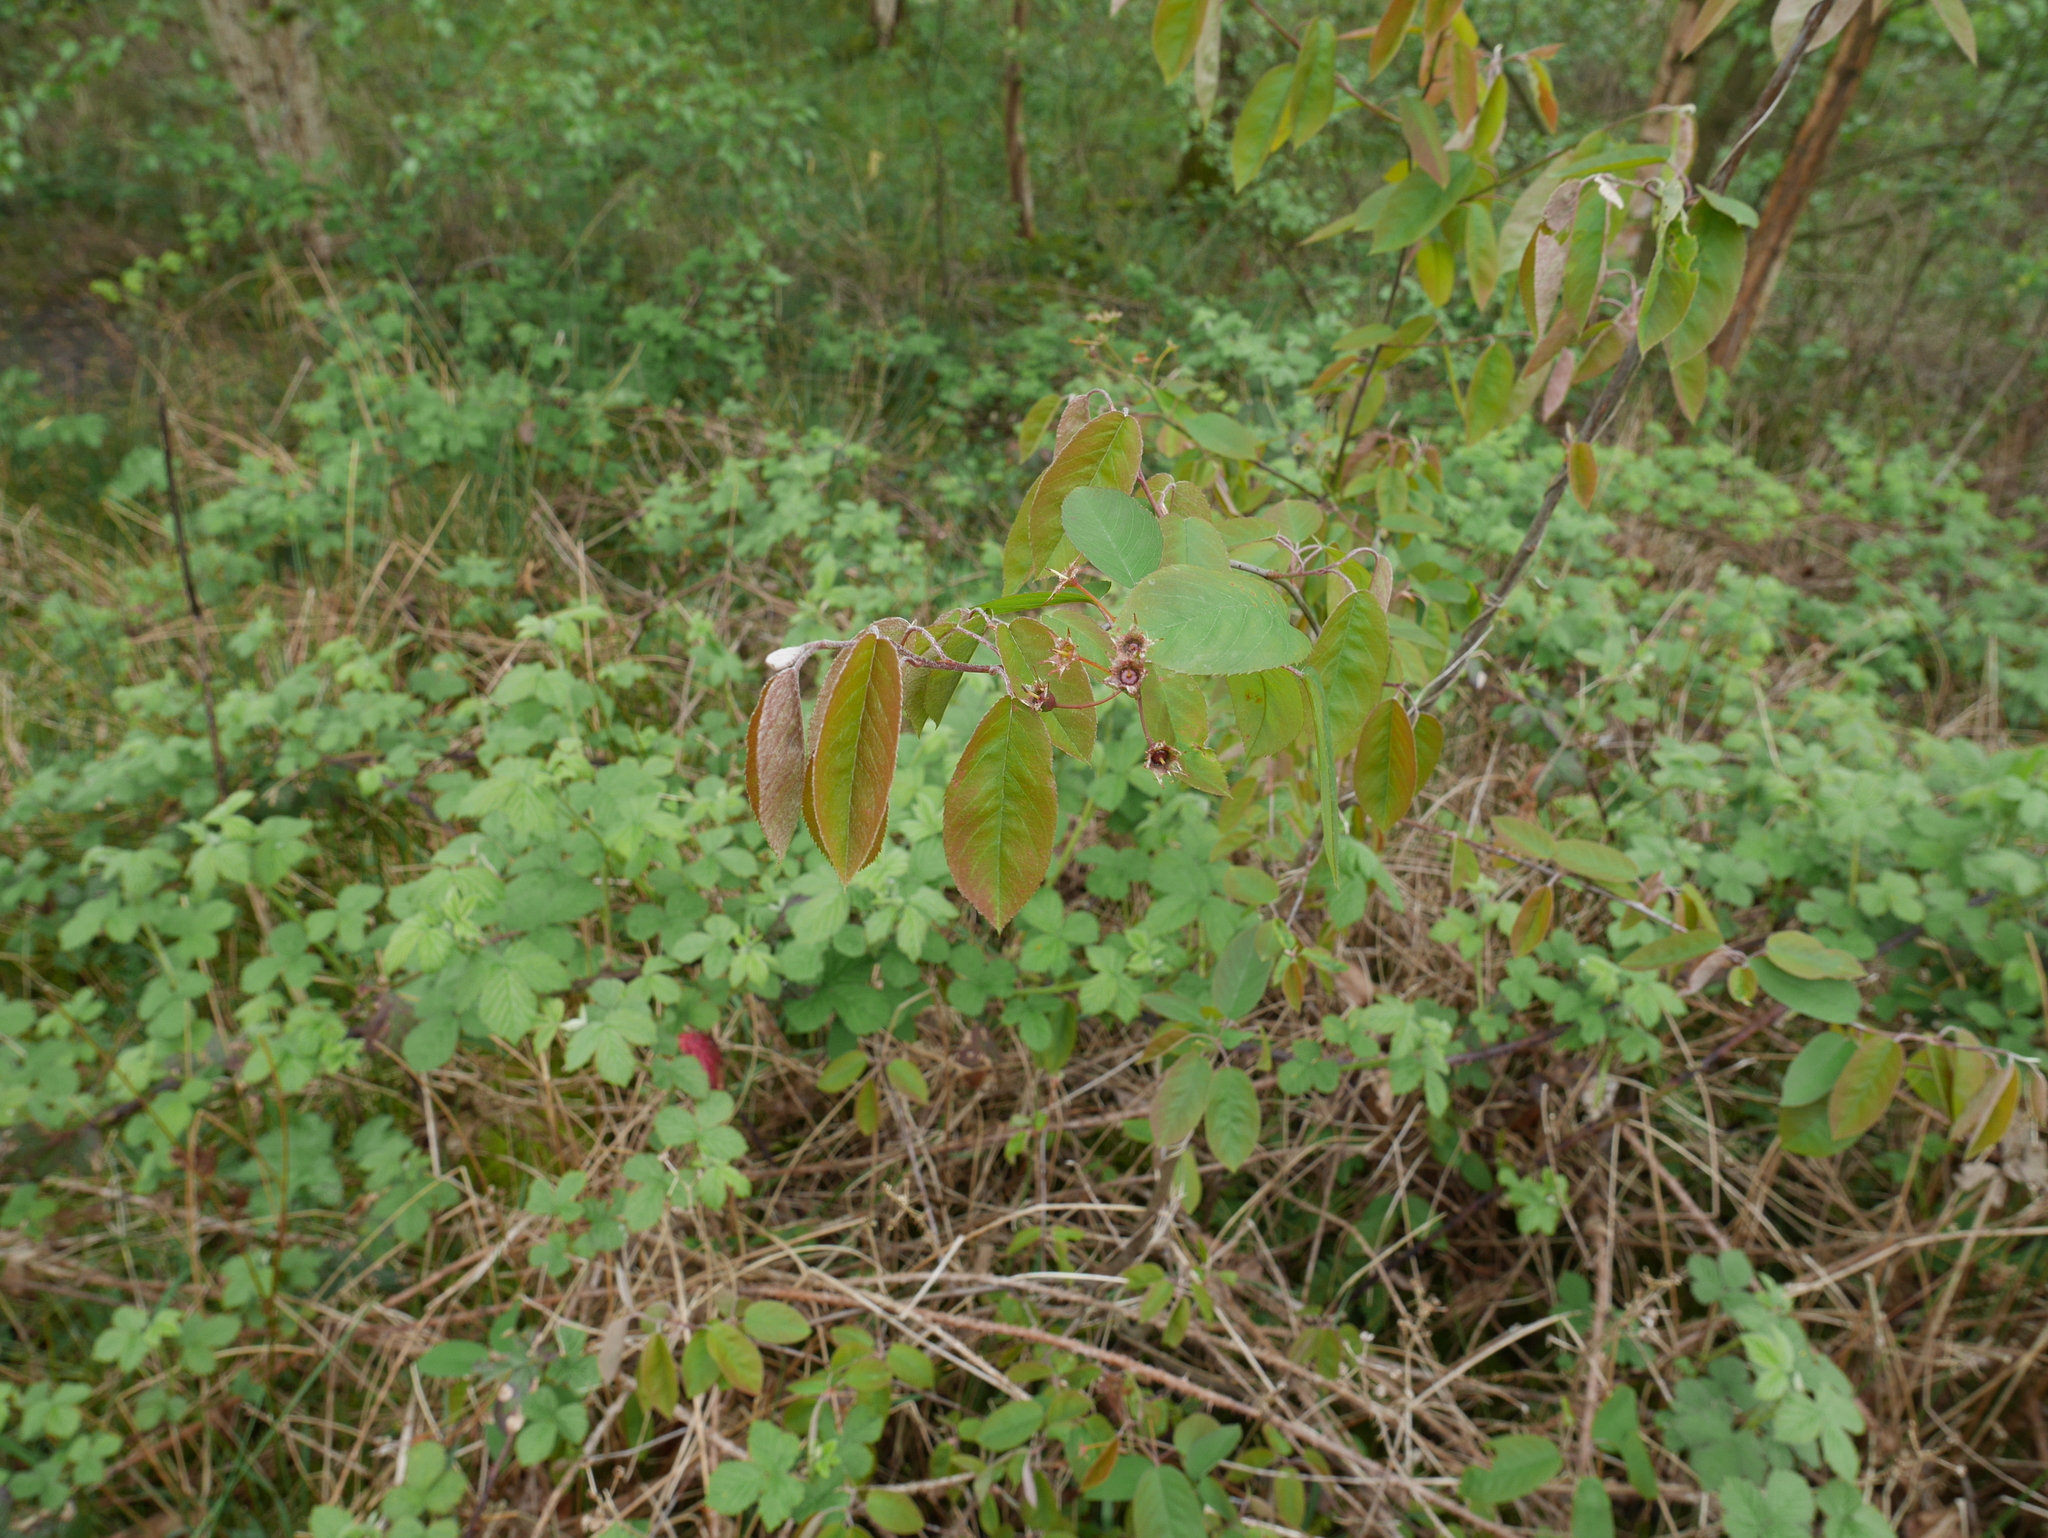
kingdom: Plantae
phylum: Tracheophyta
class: Magnoliopsida
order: Rosales
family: Rosaceae
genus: Amelanchier
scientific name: Amelanchier lamarckii
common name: Juneberry
